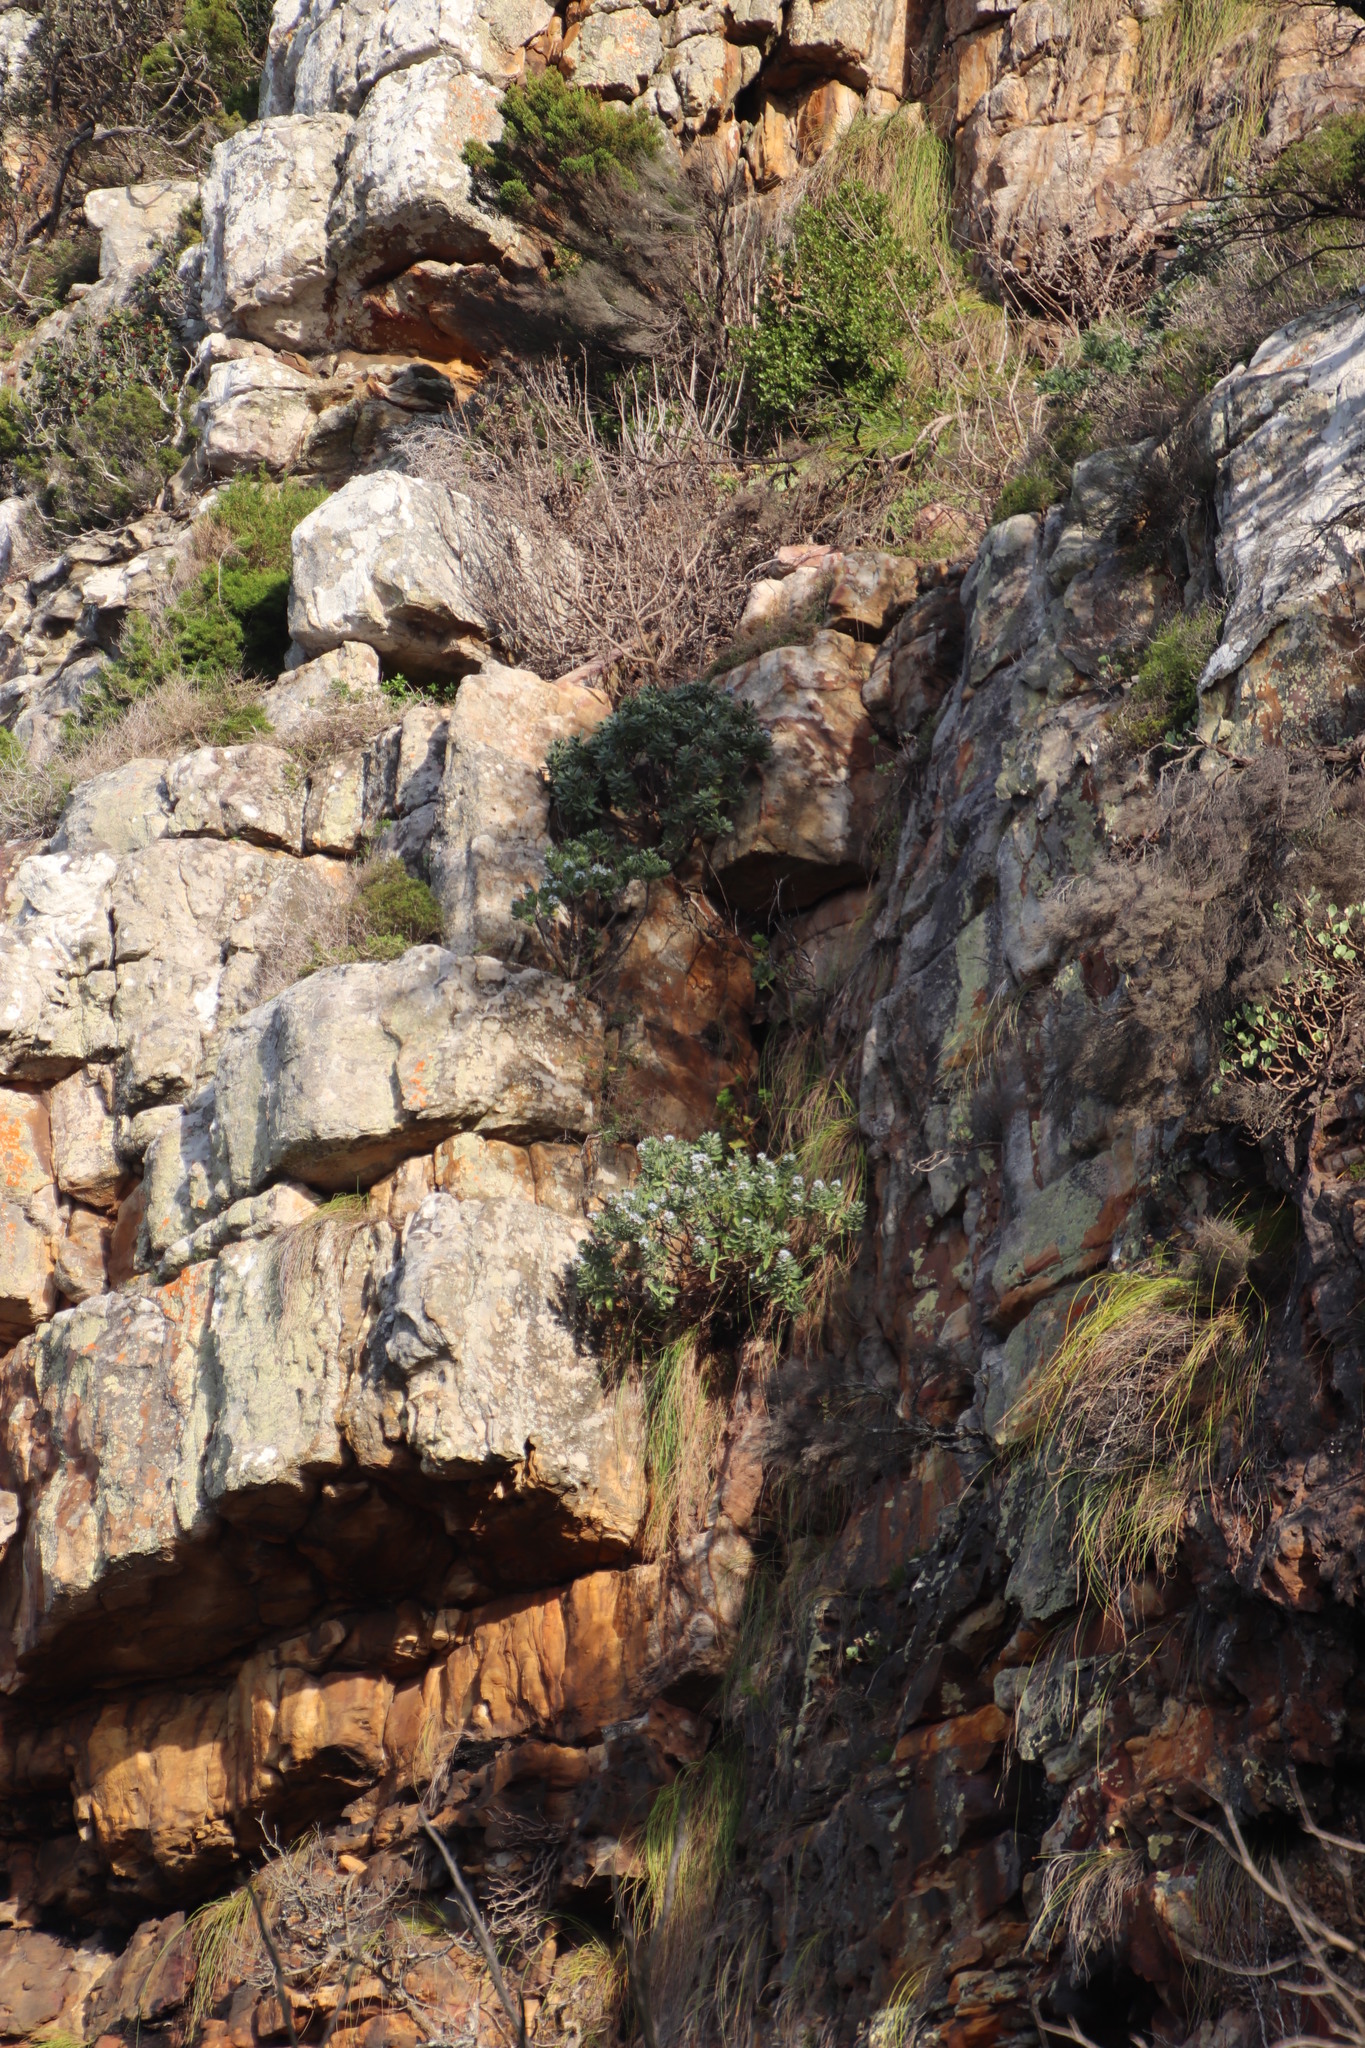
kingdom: Plantae
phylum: Tracheophyta
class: Magnoliopsida
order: Boraginales
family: Boraginaceae
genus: Lobostemon
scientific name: Lobostemon montanus
